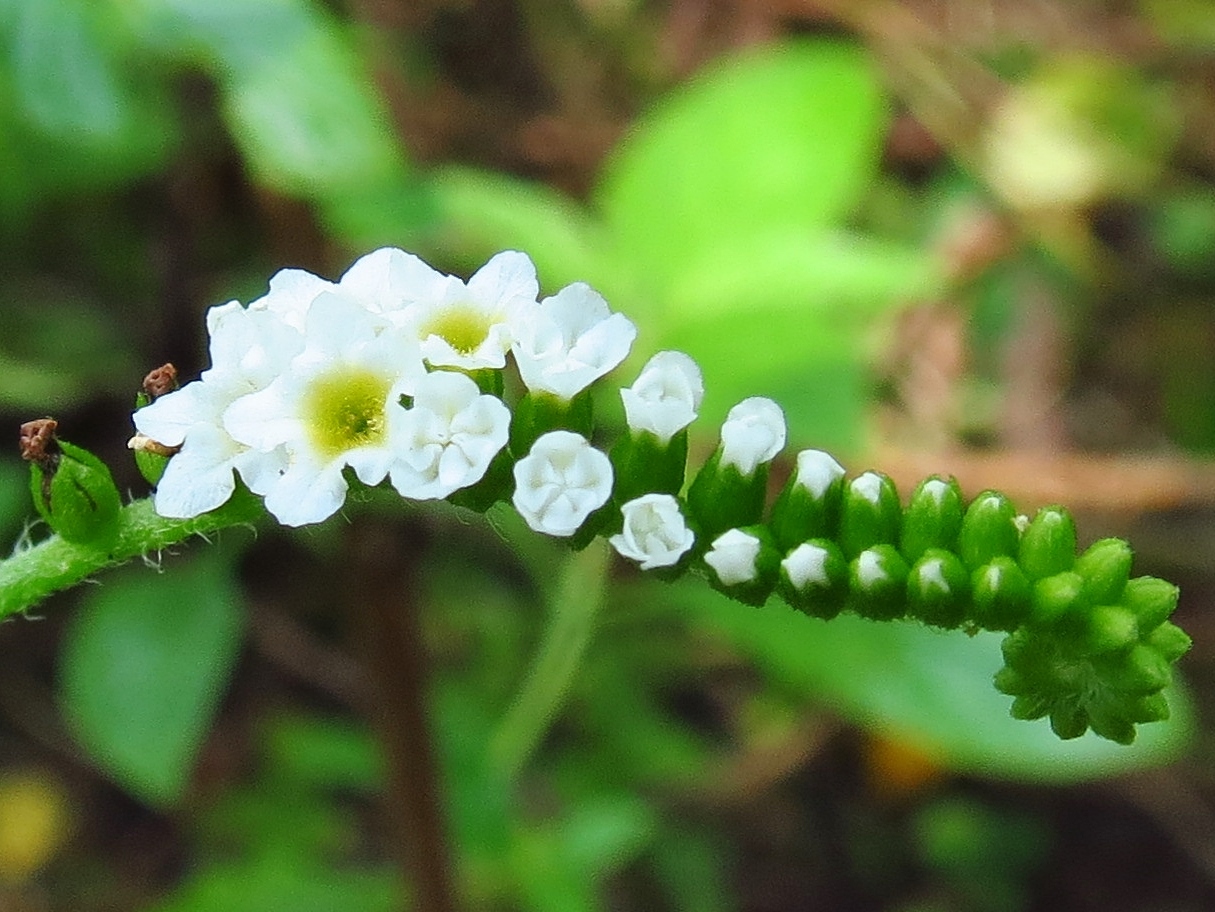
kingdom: Plantae
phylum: Tracheophyta
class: Magnoliopsida
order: Boraginales
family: Heliotropiaceae
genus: Heliotropium
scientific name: Heliotropium angiospermum
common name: Eye bright
